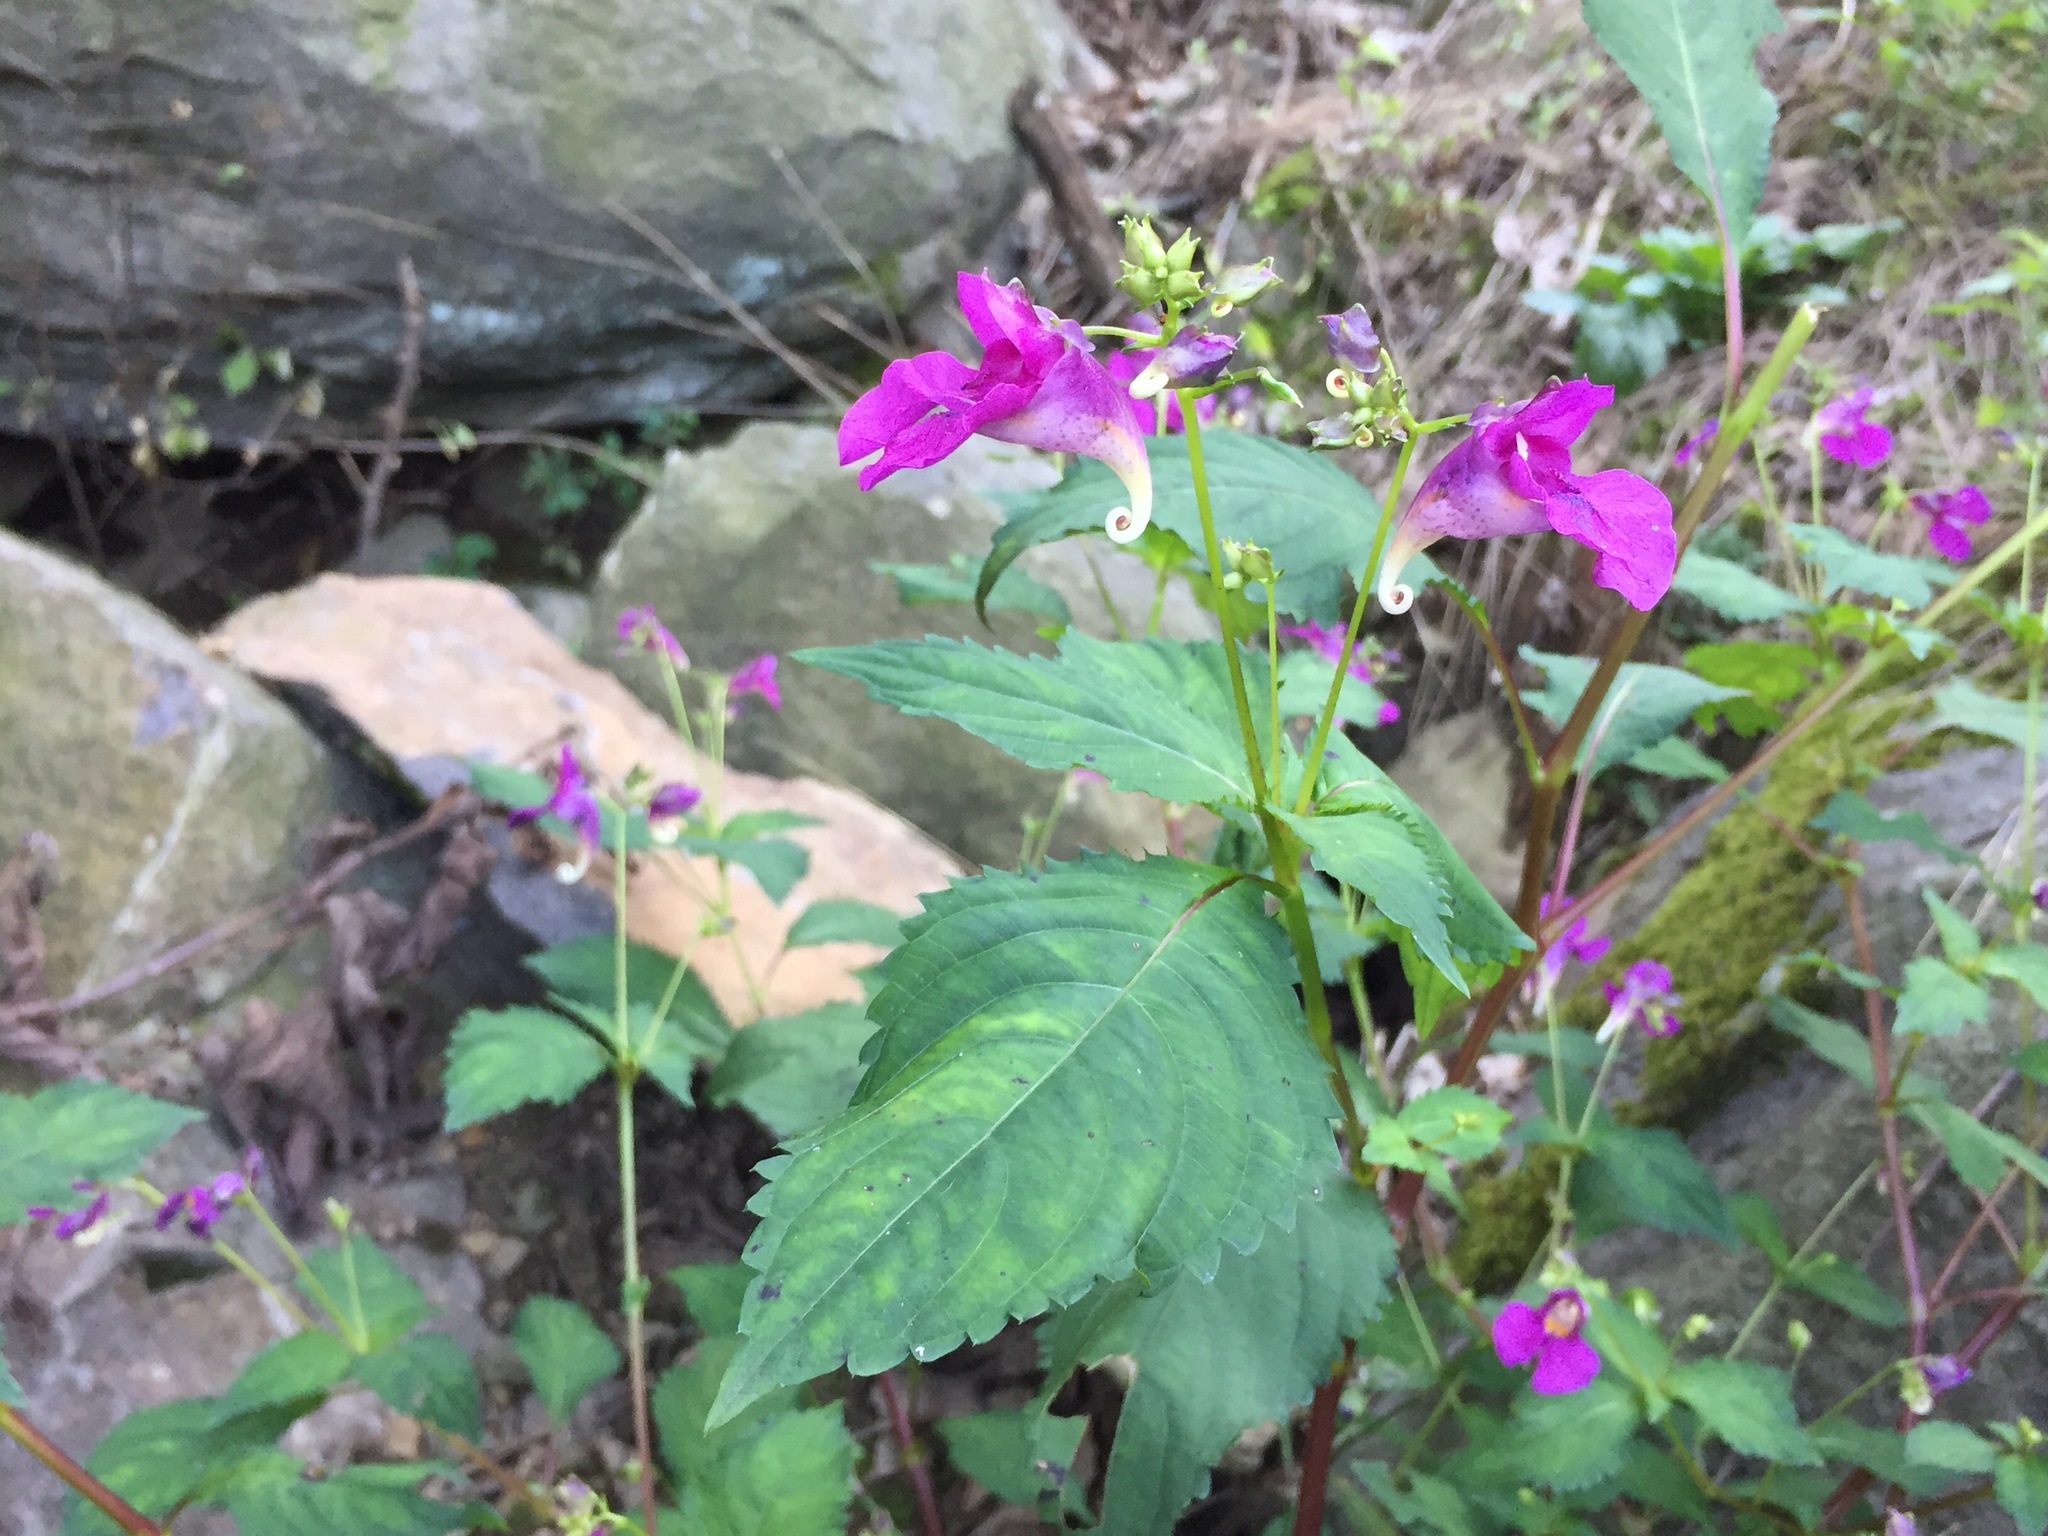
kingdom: Plantae
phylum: Tracheophyta
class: Magnoliopsida
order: Ericales
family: Balsaminaceae
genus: Impatiens
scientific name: Impatiens textorii
